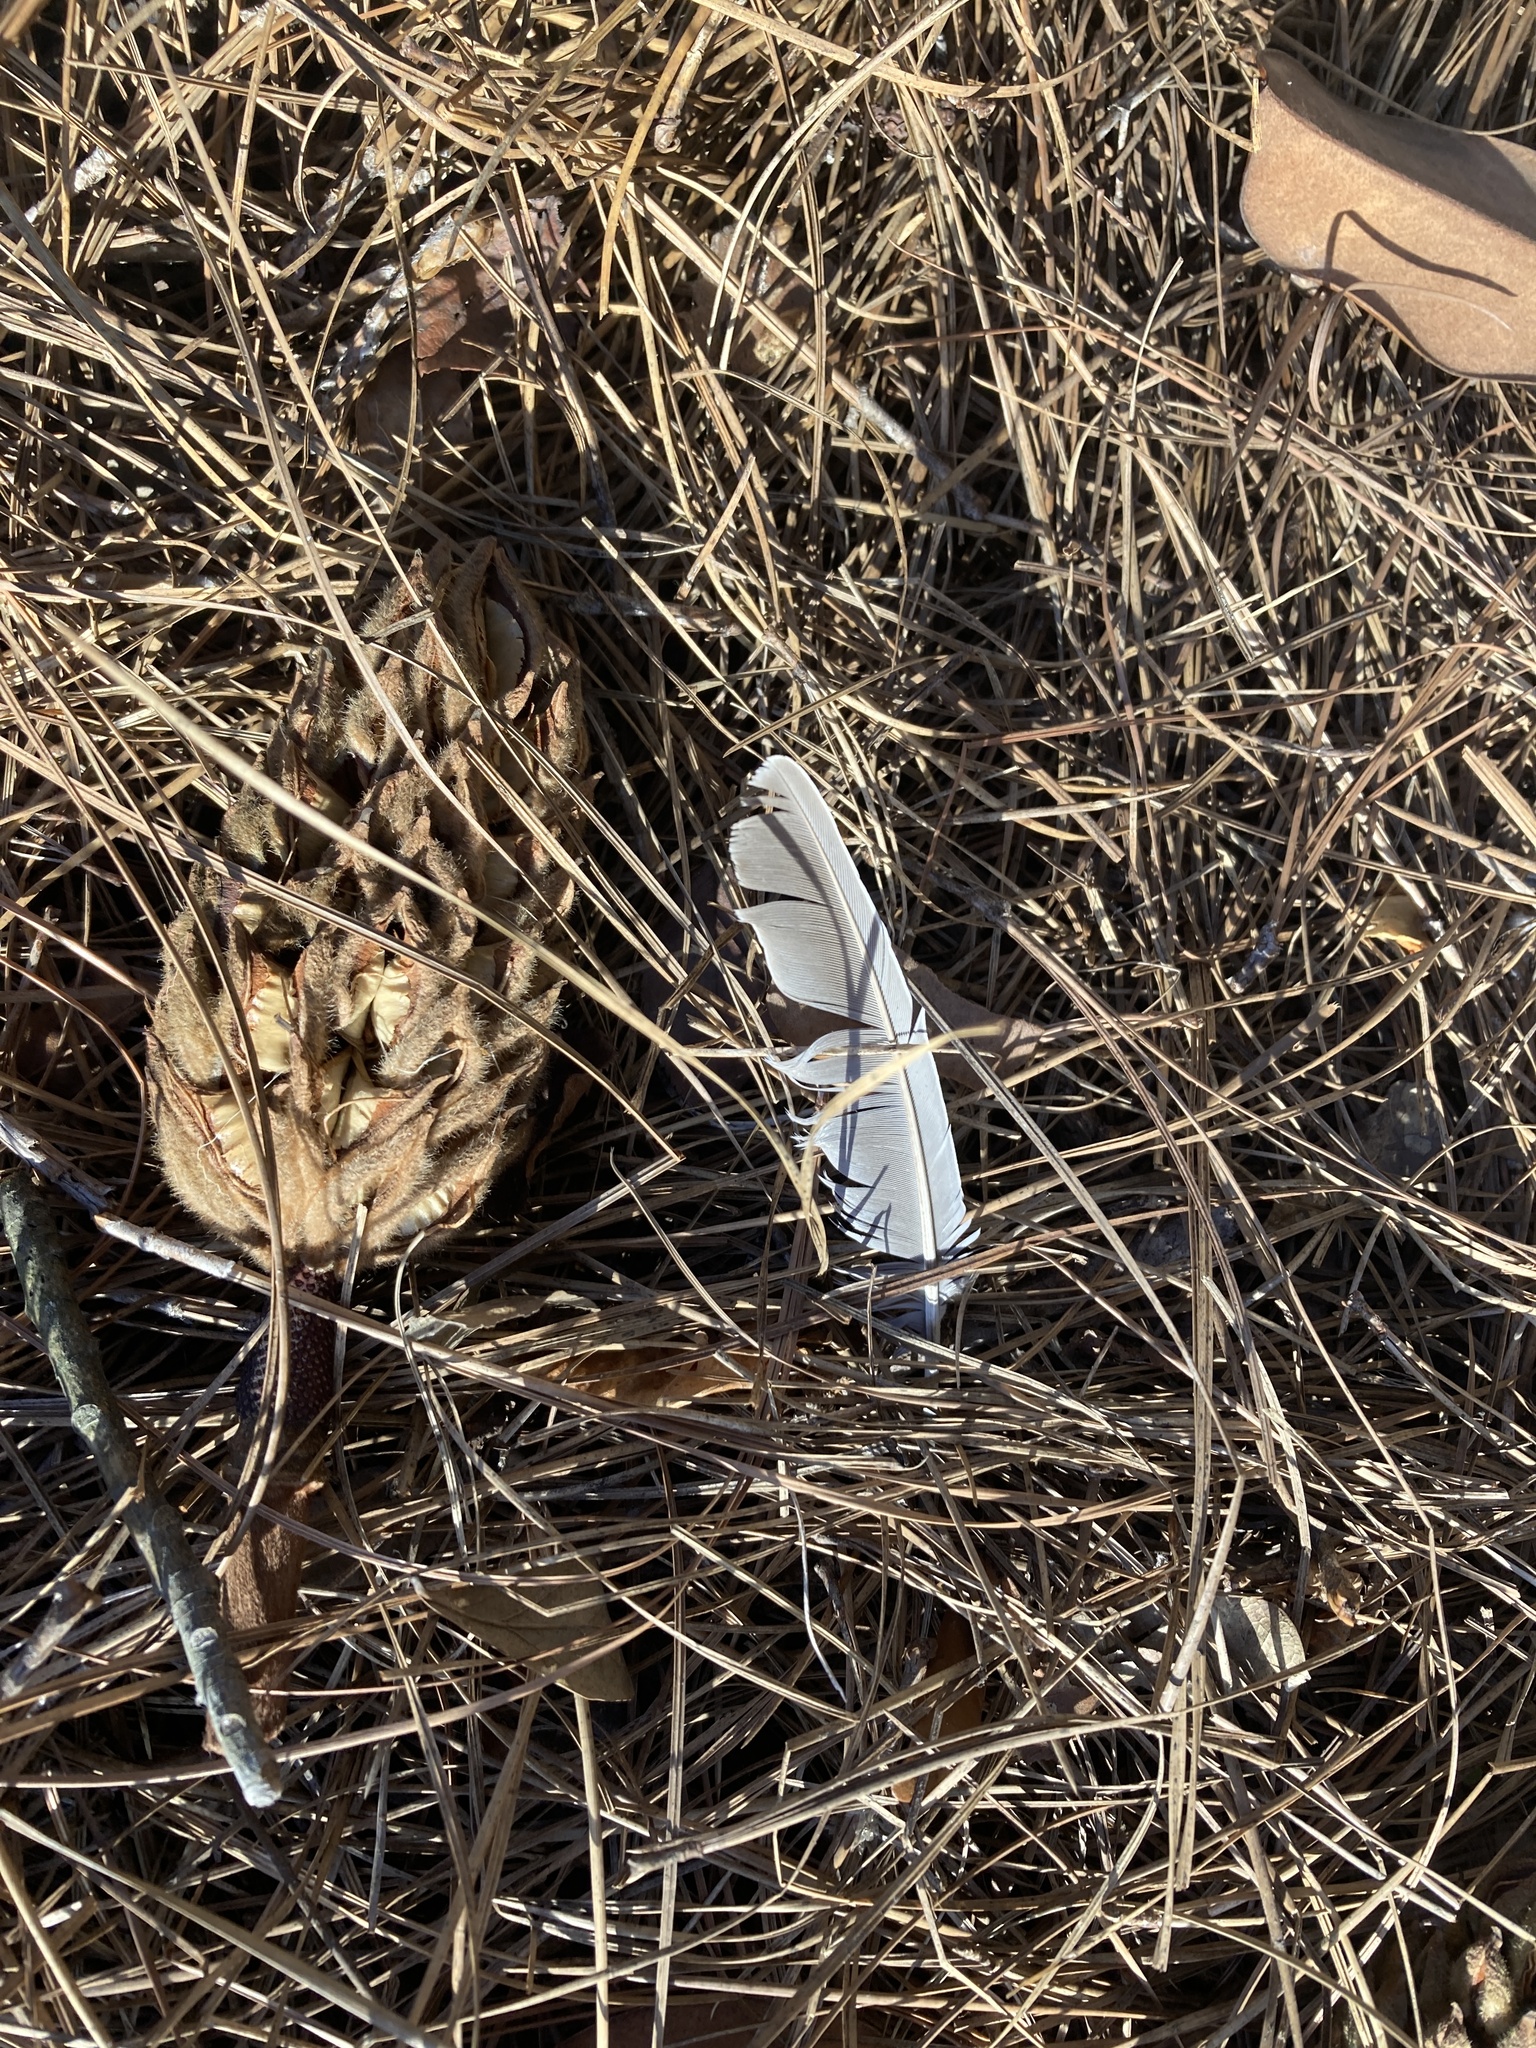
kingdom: Animalia
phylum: Chordata
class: Aves
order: Columbiformes
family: Columbidae
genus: Zenaida
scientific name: Zenaida macroura
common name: Mourning dove
